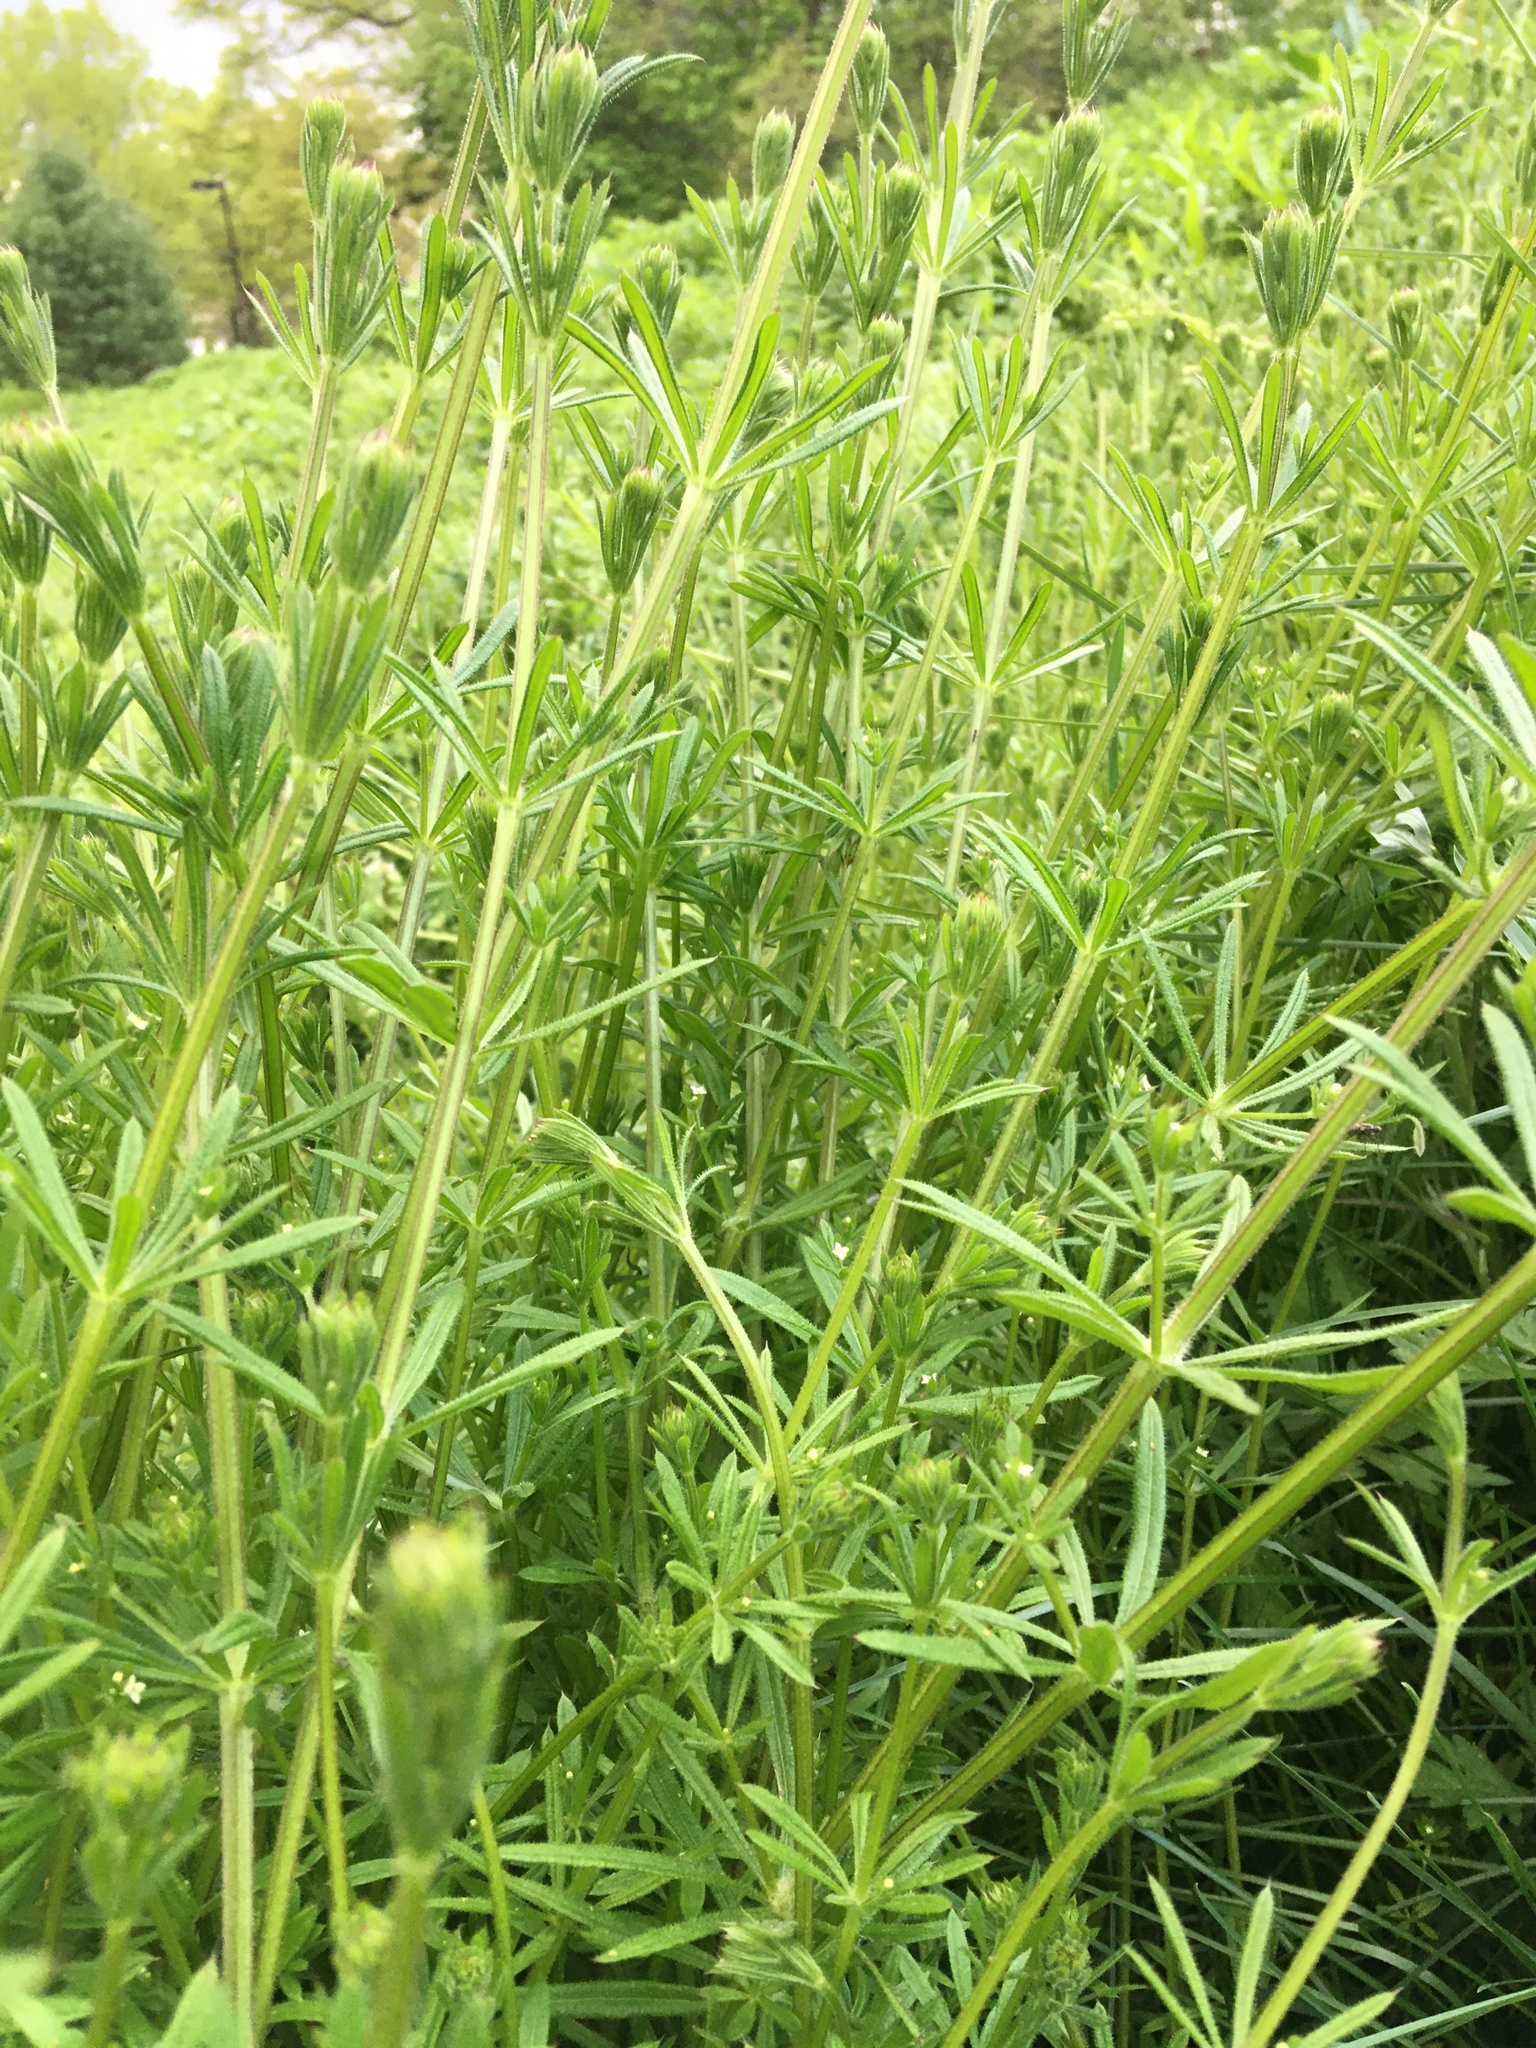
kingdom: Plantae
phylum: Tracheophyta
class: Magnoliopsida
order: Gentianales
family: Rubiaceae
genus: Galium
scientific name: Galium aparine
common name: Cleavers
